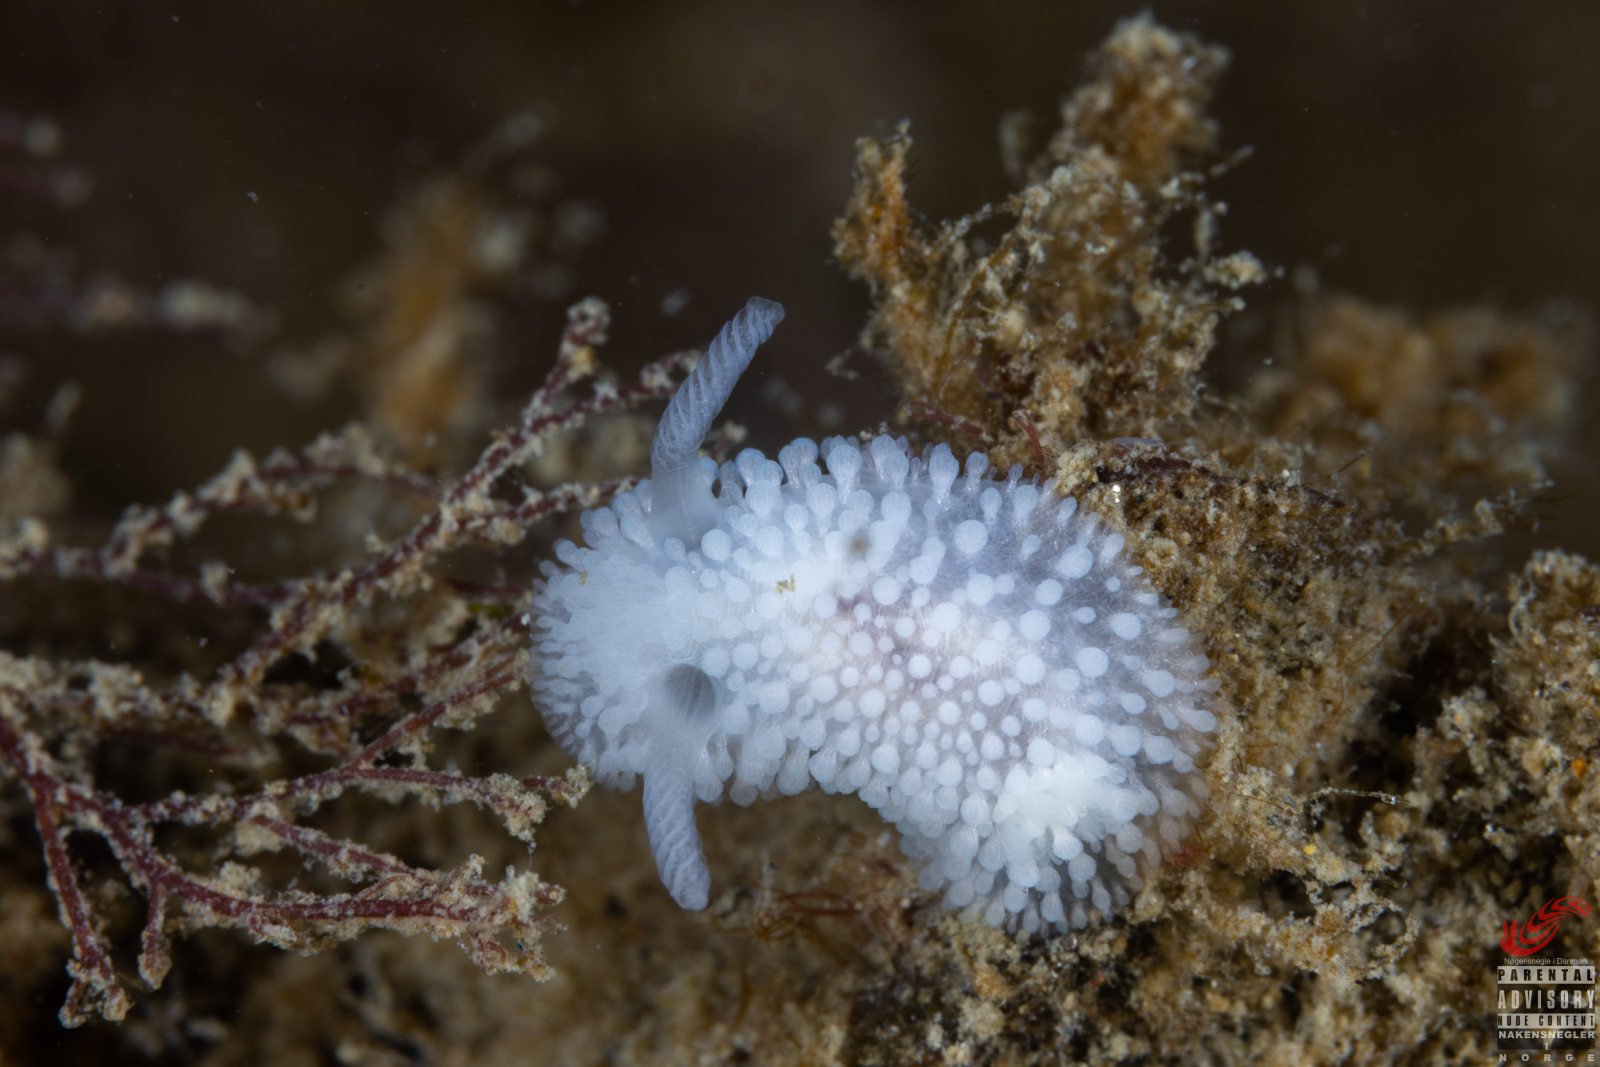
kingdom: Animalia
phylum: Mollusca
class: Gastropoda
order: Nudibranchia
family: Onchidorididae
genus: Onchidoris
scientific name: Onchidoris muricata
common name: Rough doris
